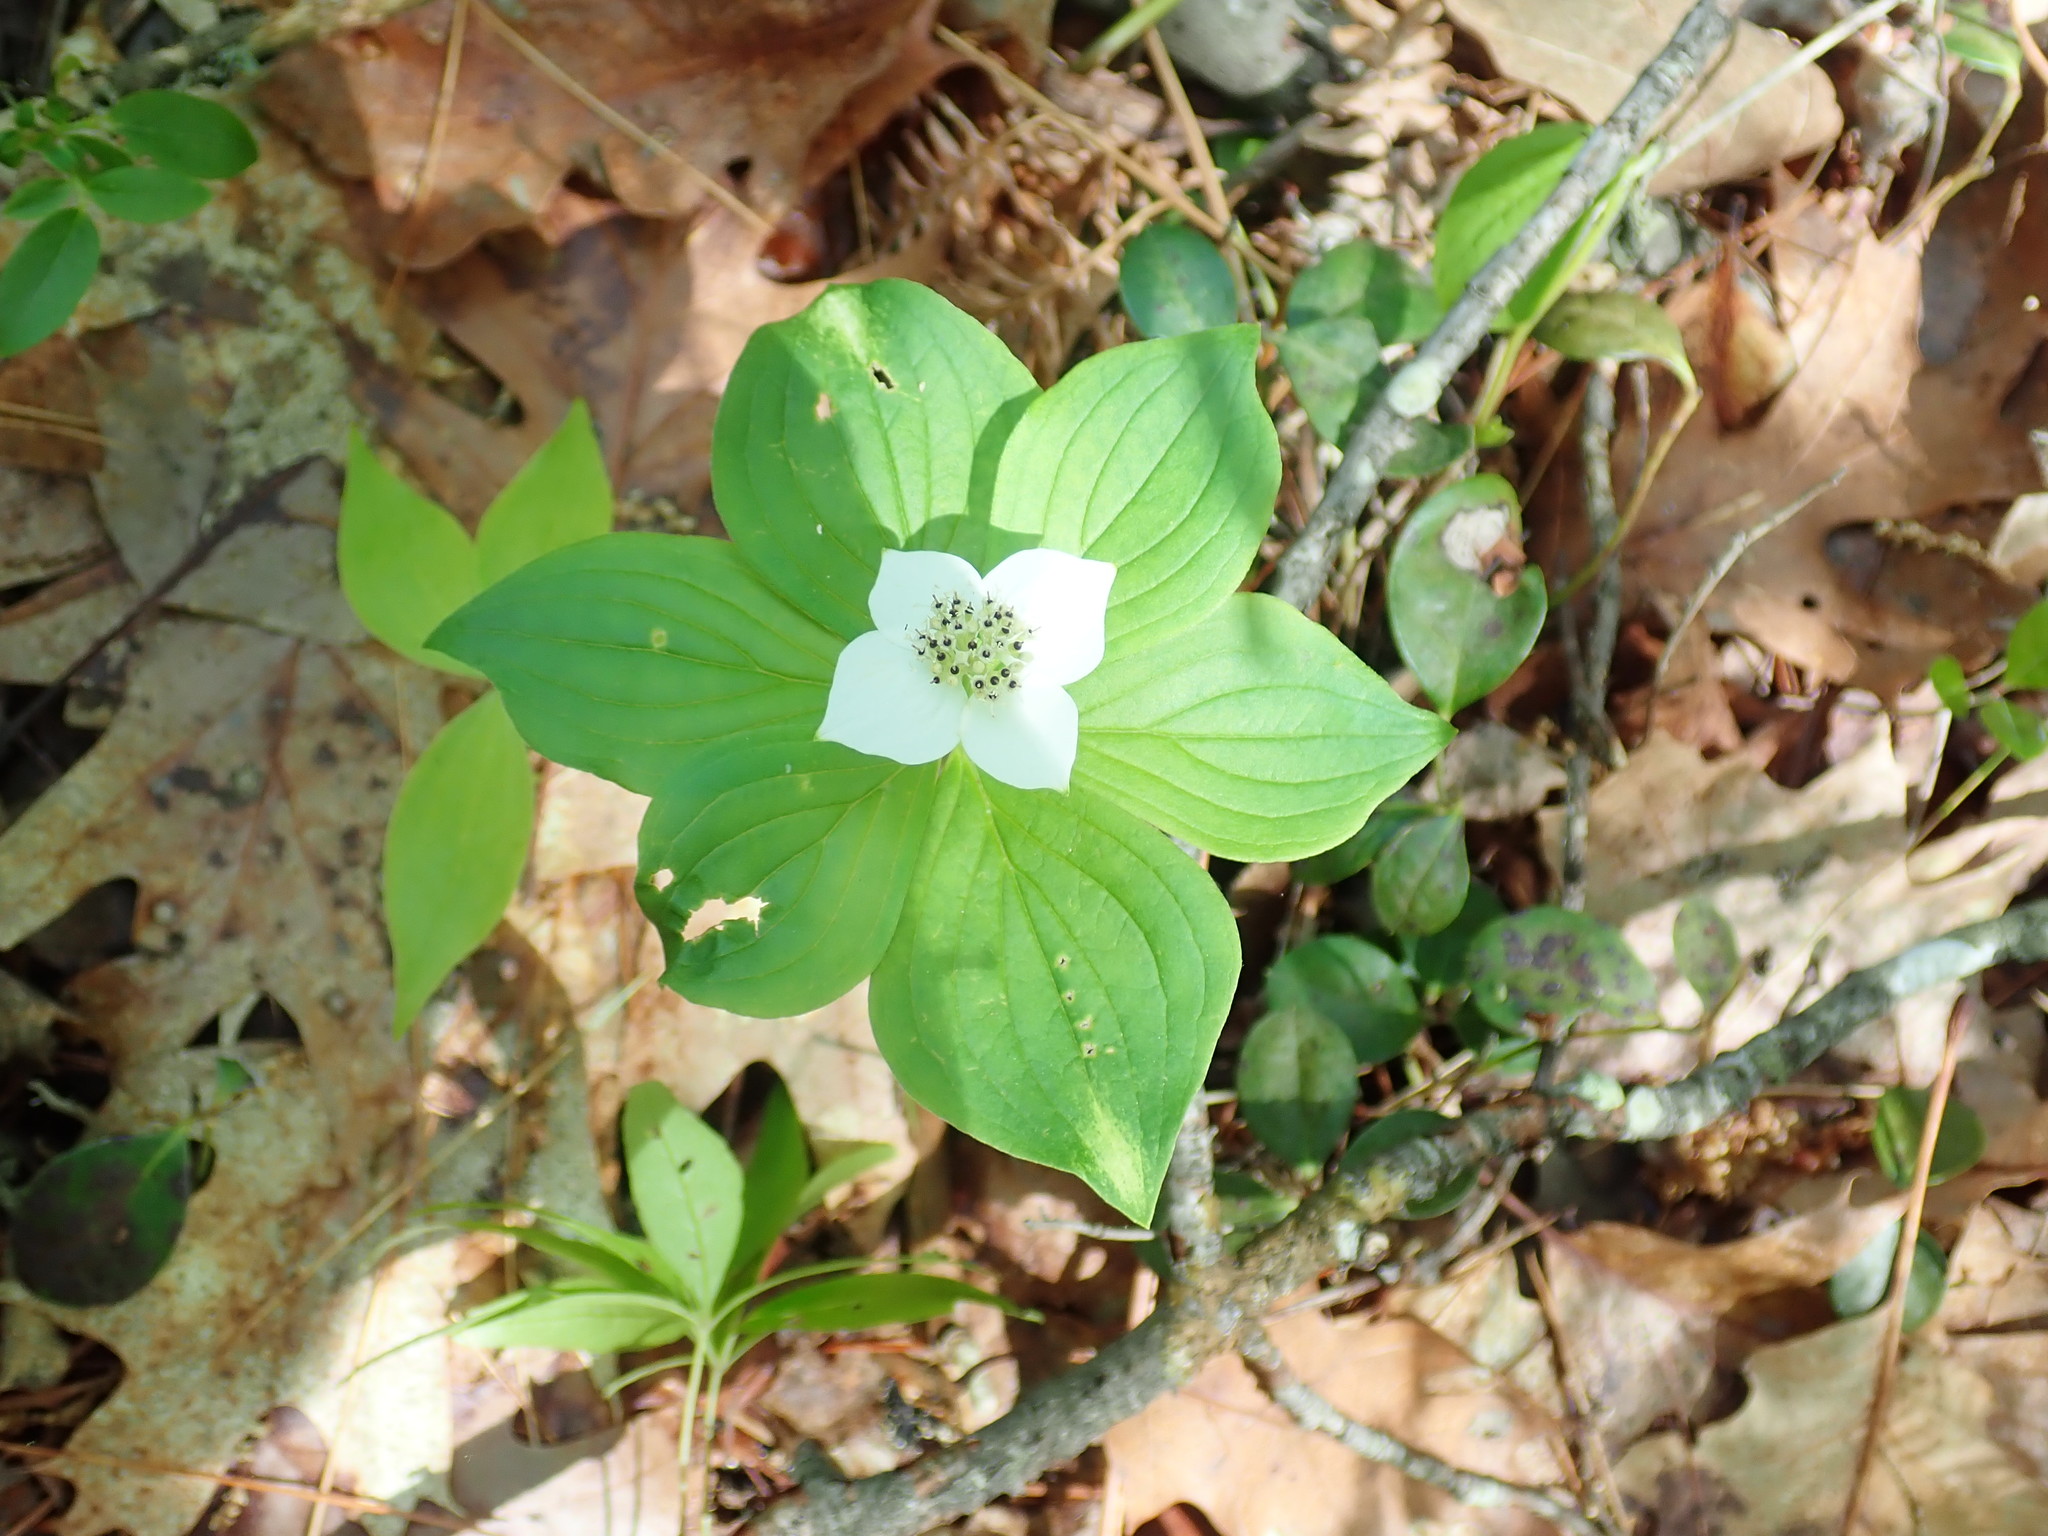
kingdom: Plantae
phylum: Tracheophyta
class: Magnoliopsida
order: Cornales
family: Cornaceae
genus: Cornus
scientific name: Cornus canadensis
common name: Creeping dogwood
